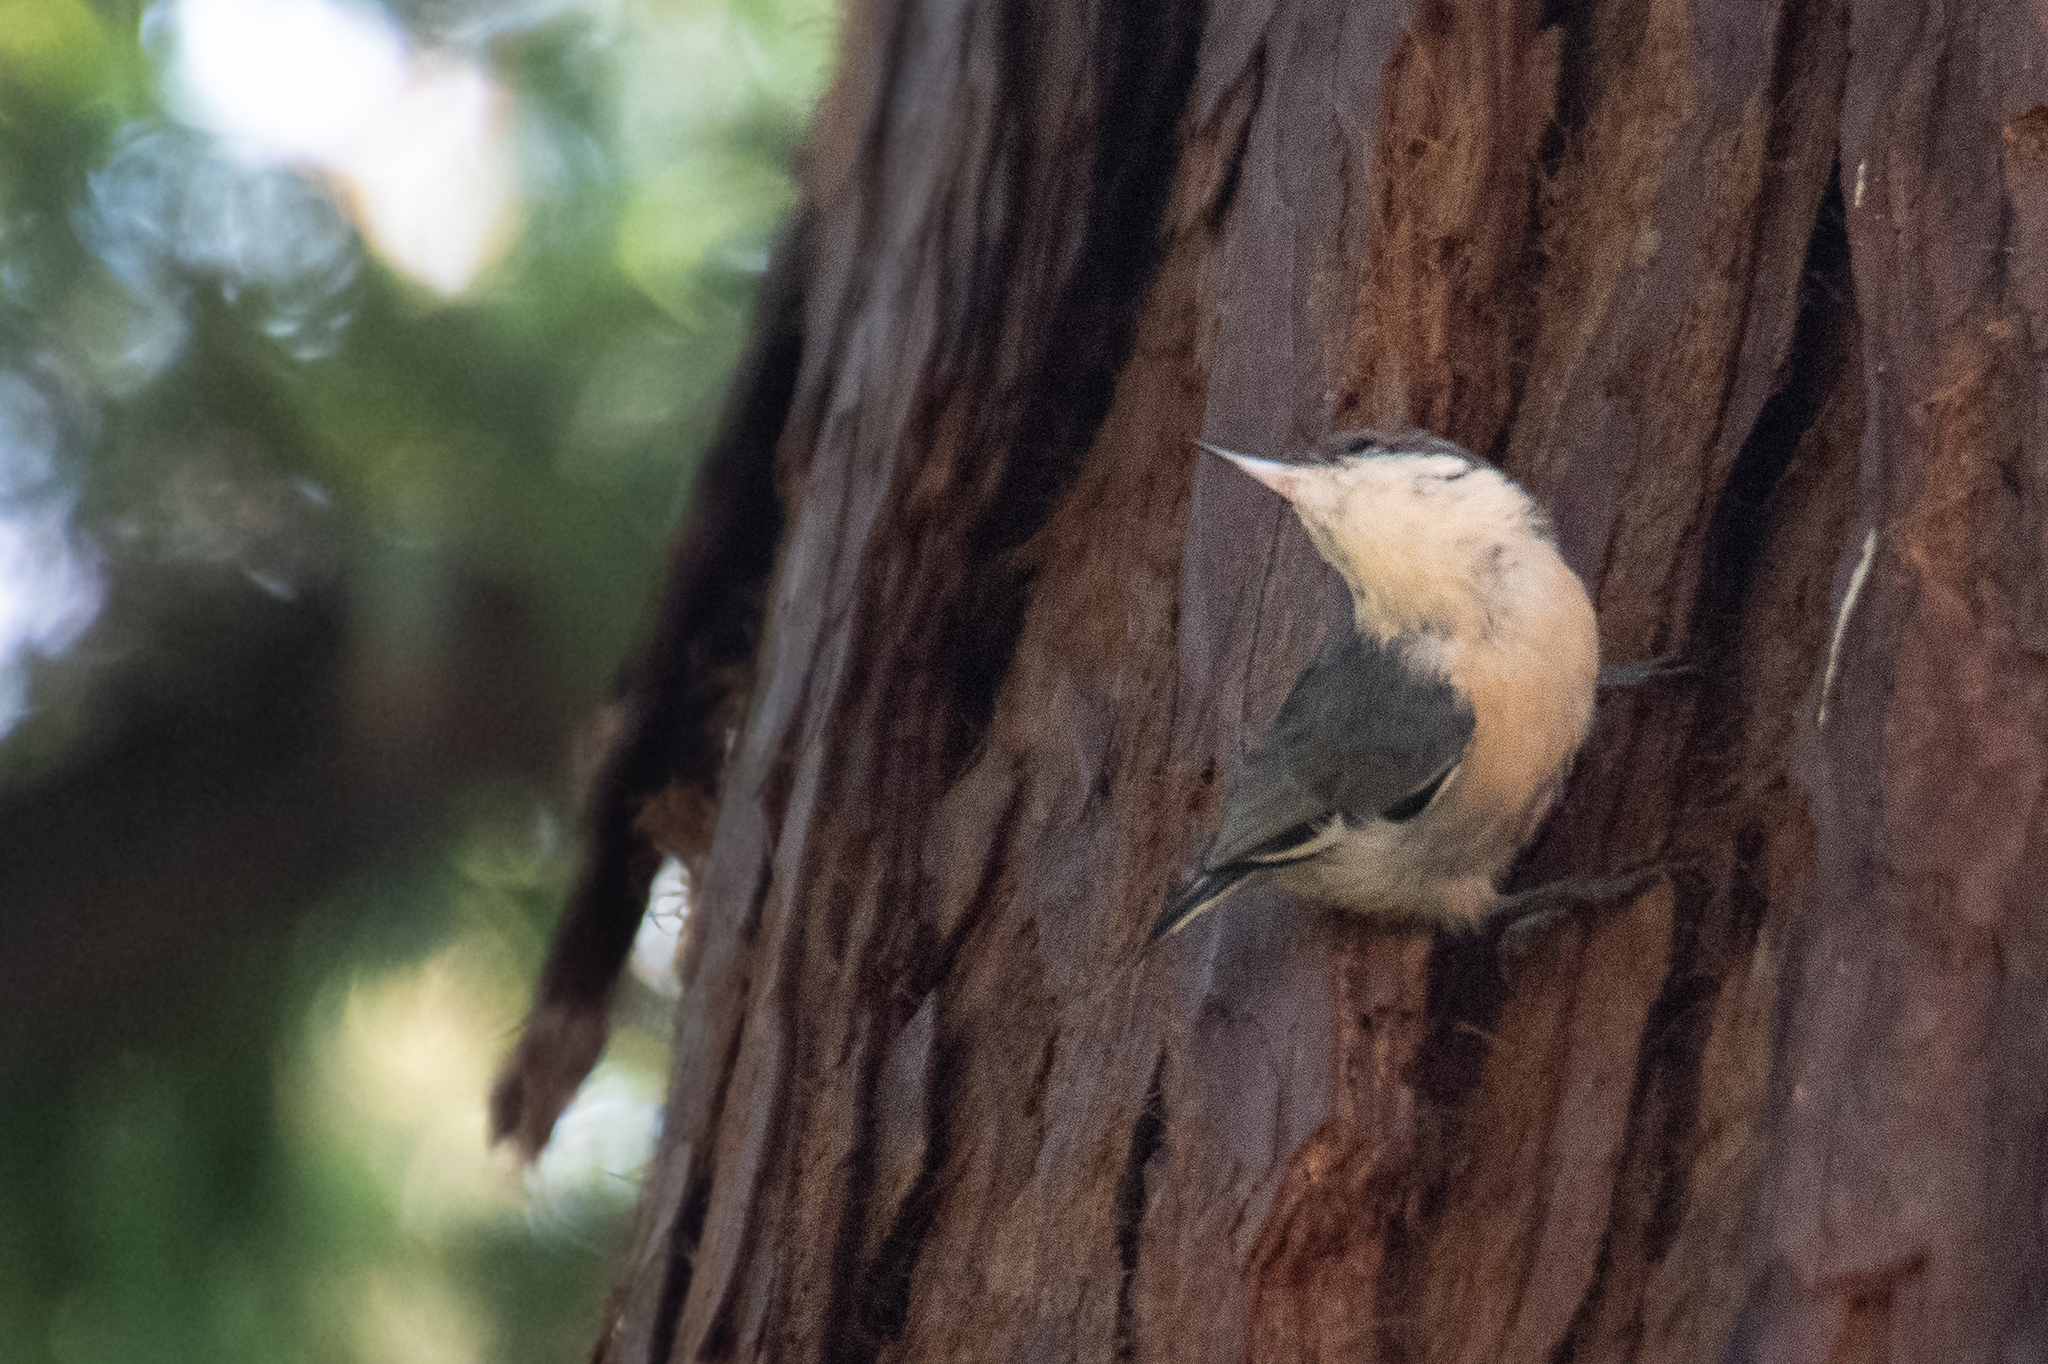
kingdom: Animalia
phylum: Chordata
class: Aves
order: Passeriformes
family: Sittidae
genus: Sitta
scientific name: Sitta pygmaea
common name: Pygmy nuthatch
